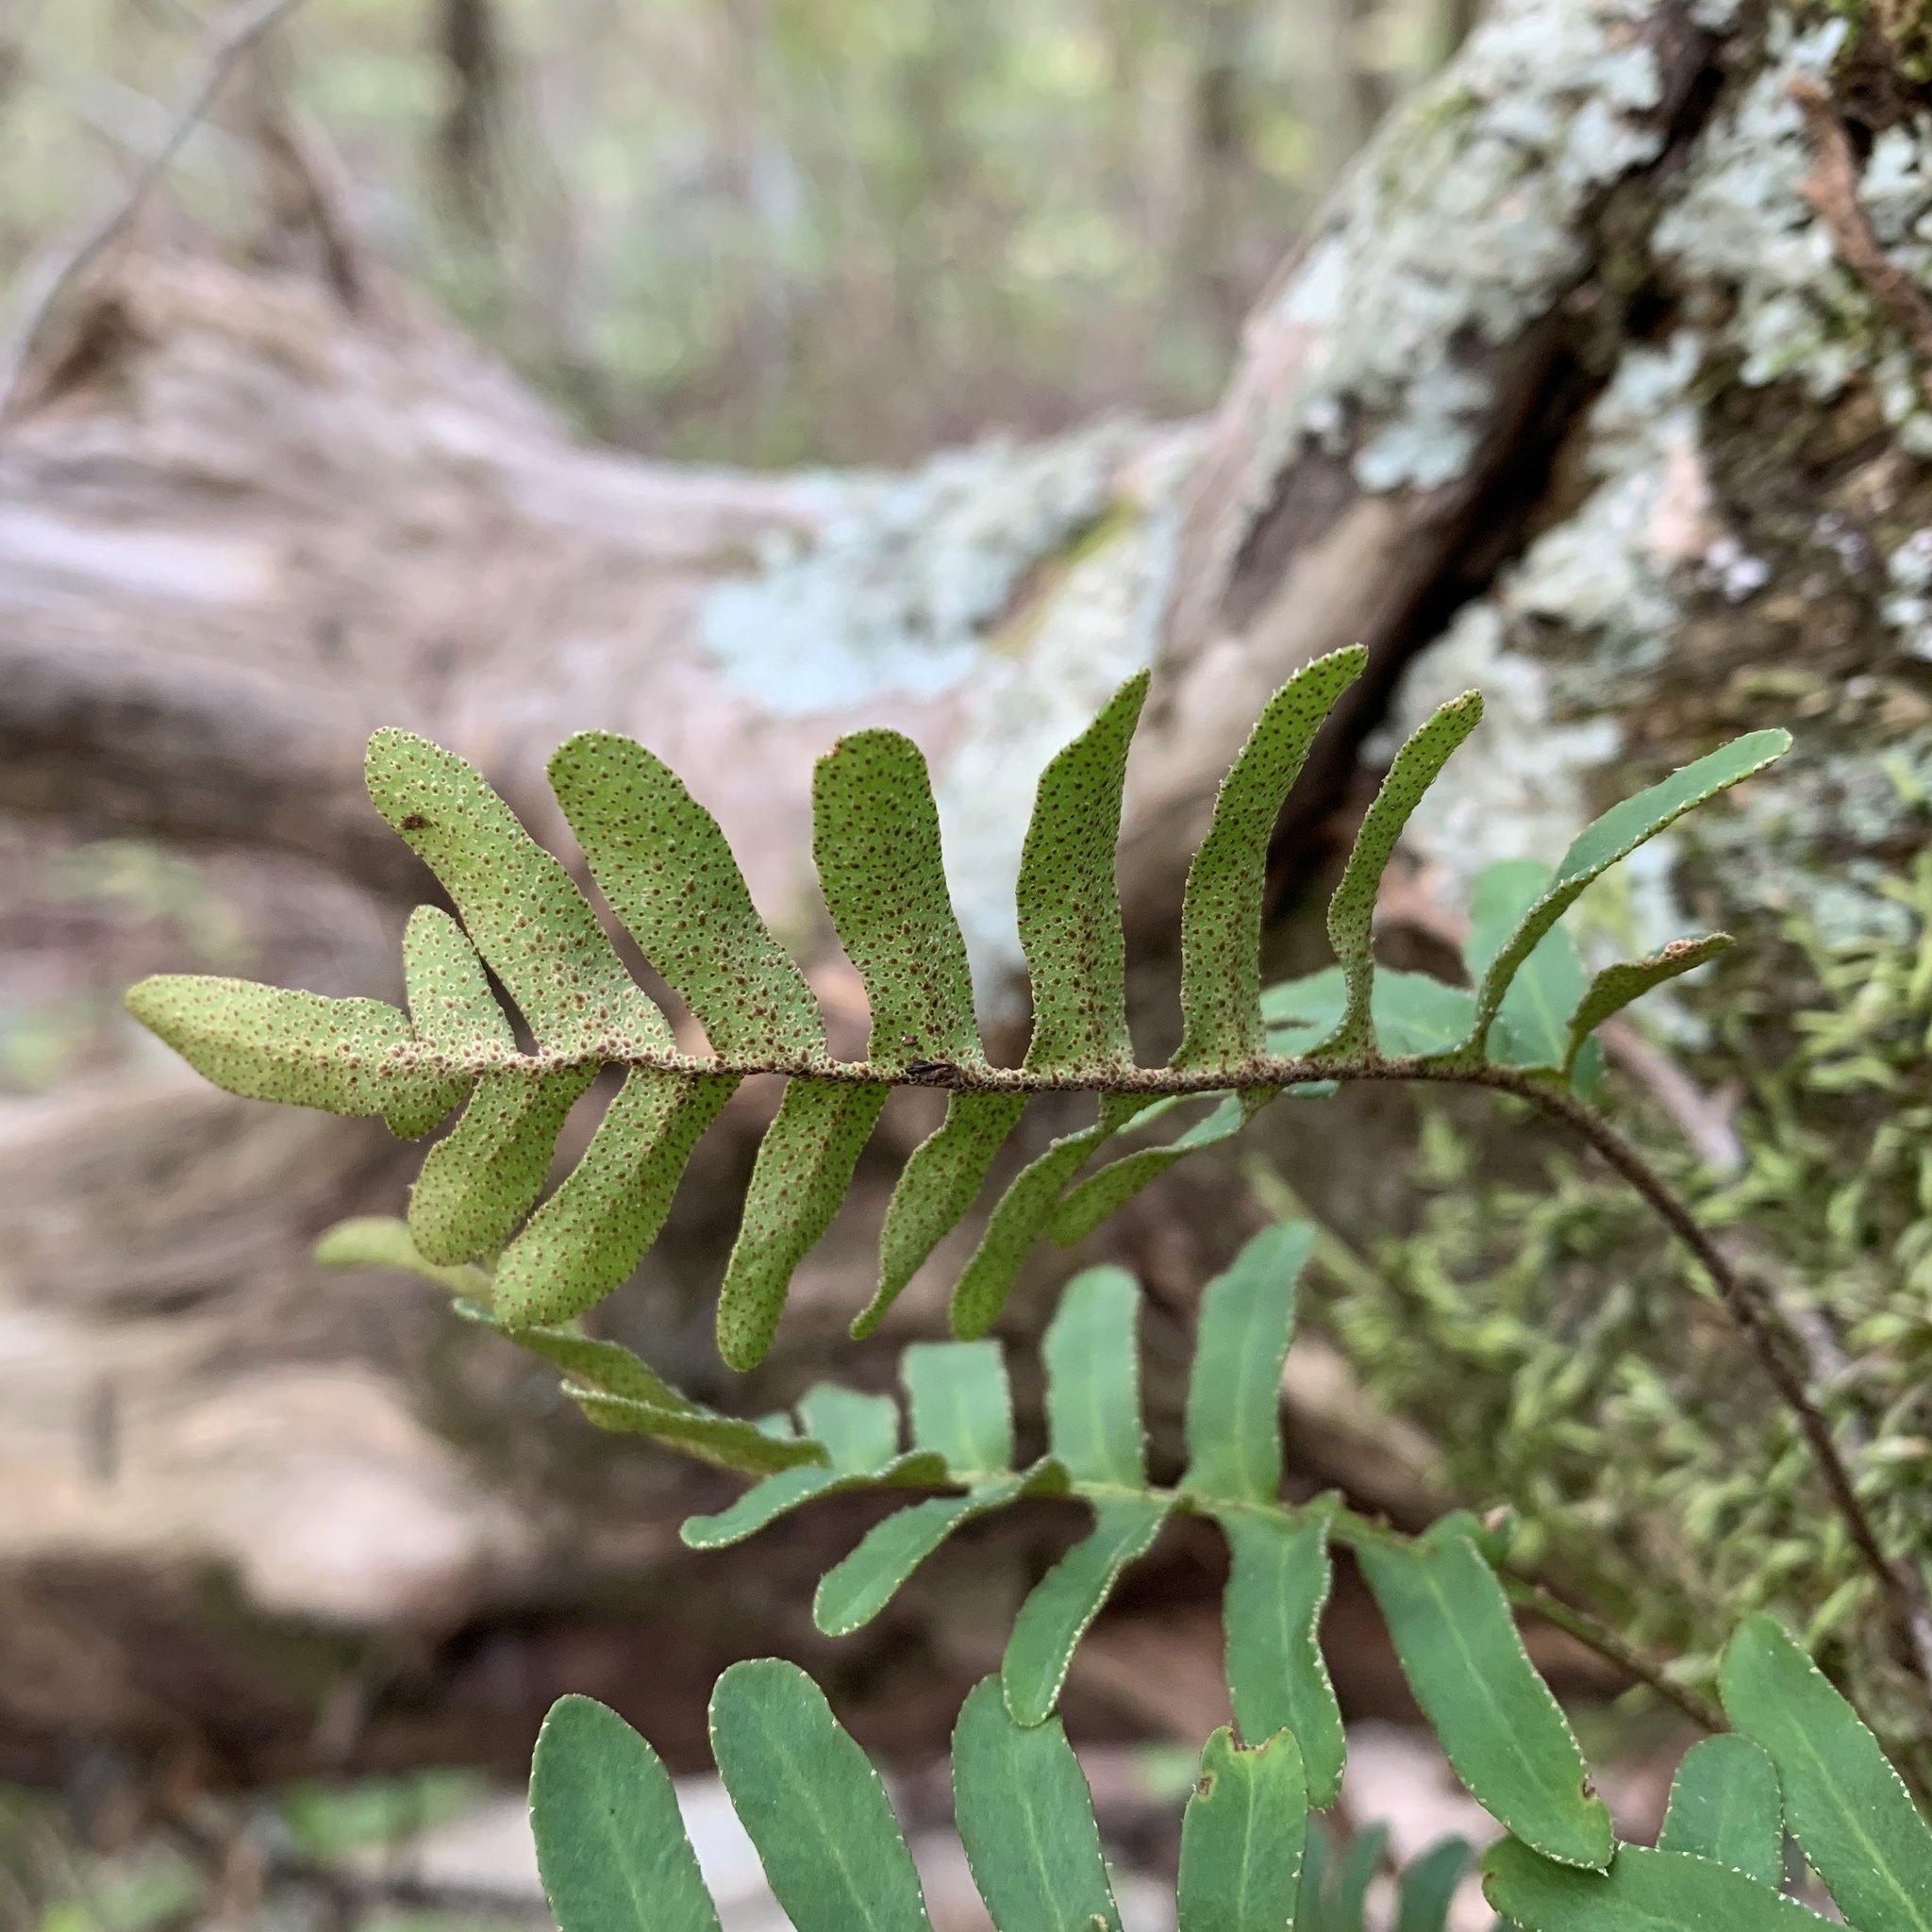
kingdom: Plantae
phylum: Tracheophyta
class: Polypodiopsida
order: Polypodiales
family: Polypodiaceae
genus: Pleopeltis
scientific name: Pleopeltis michauxiana
